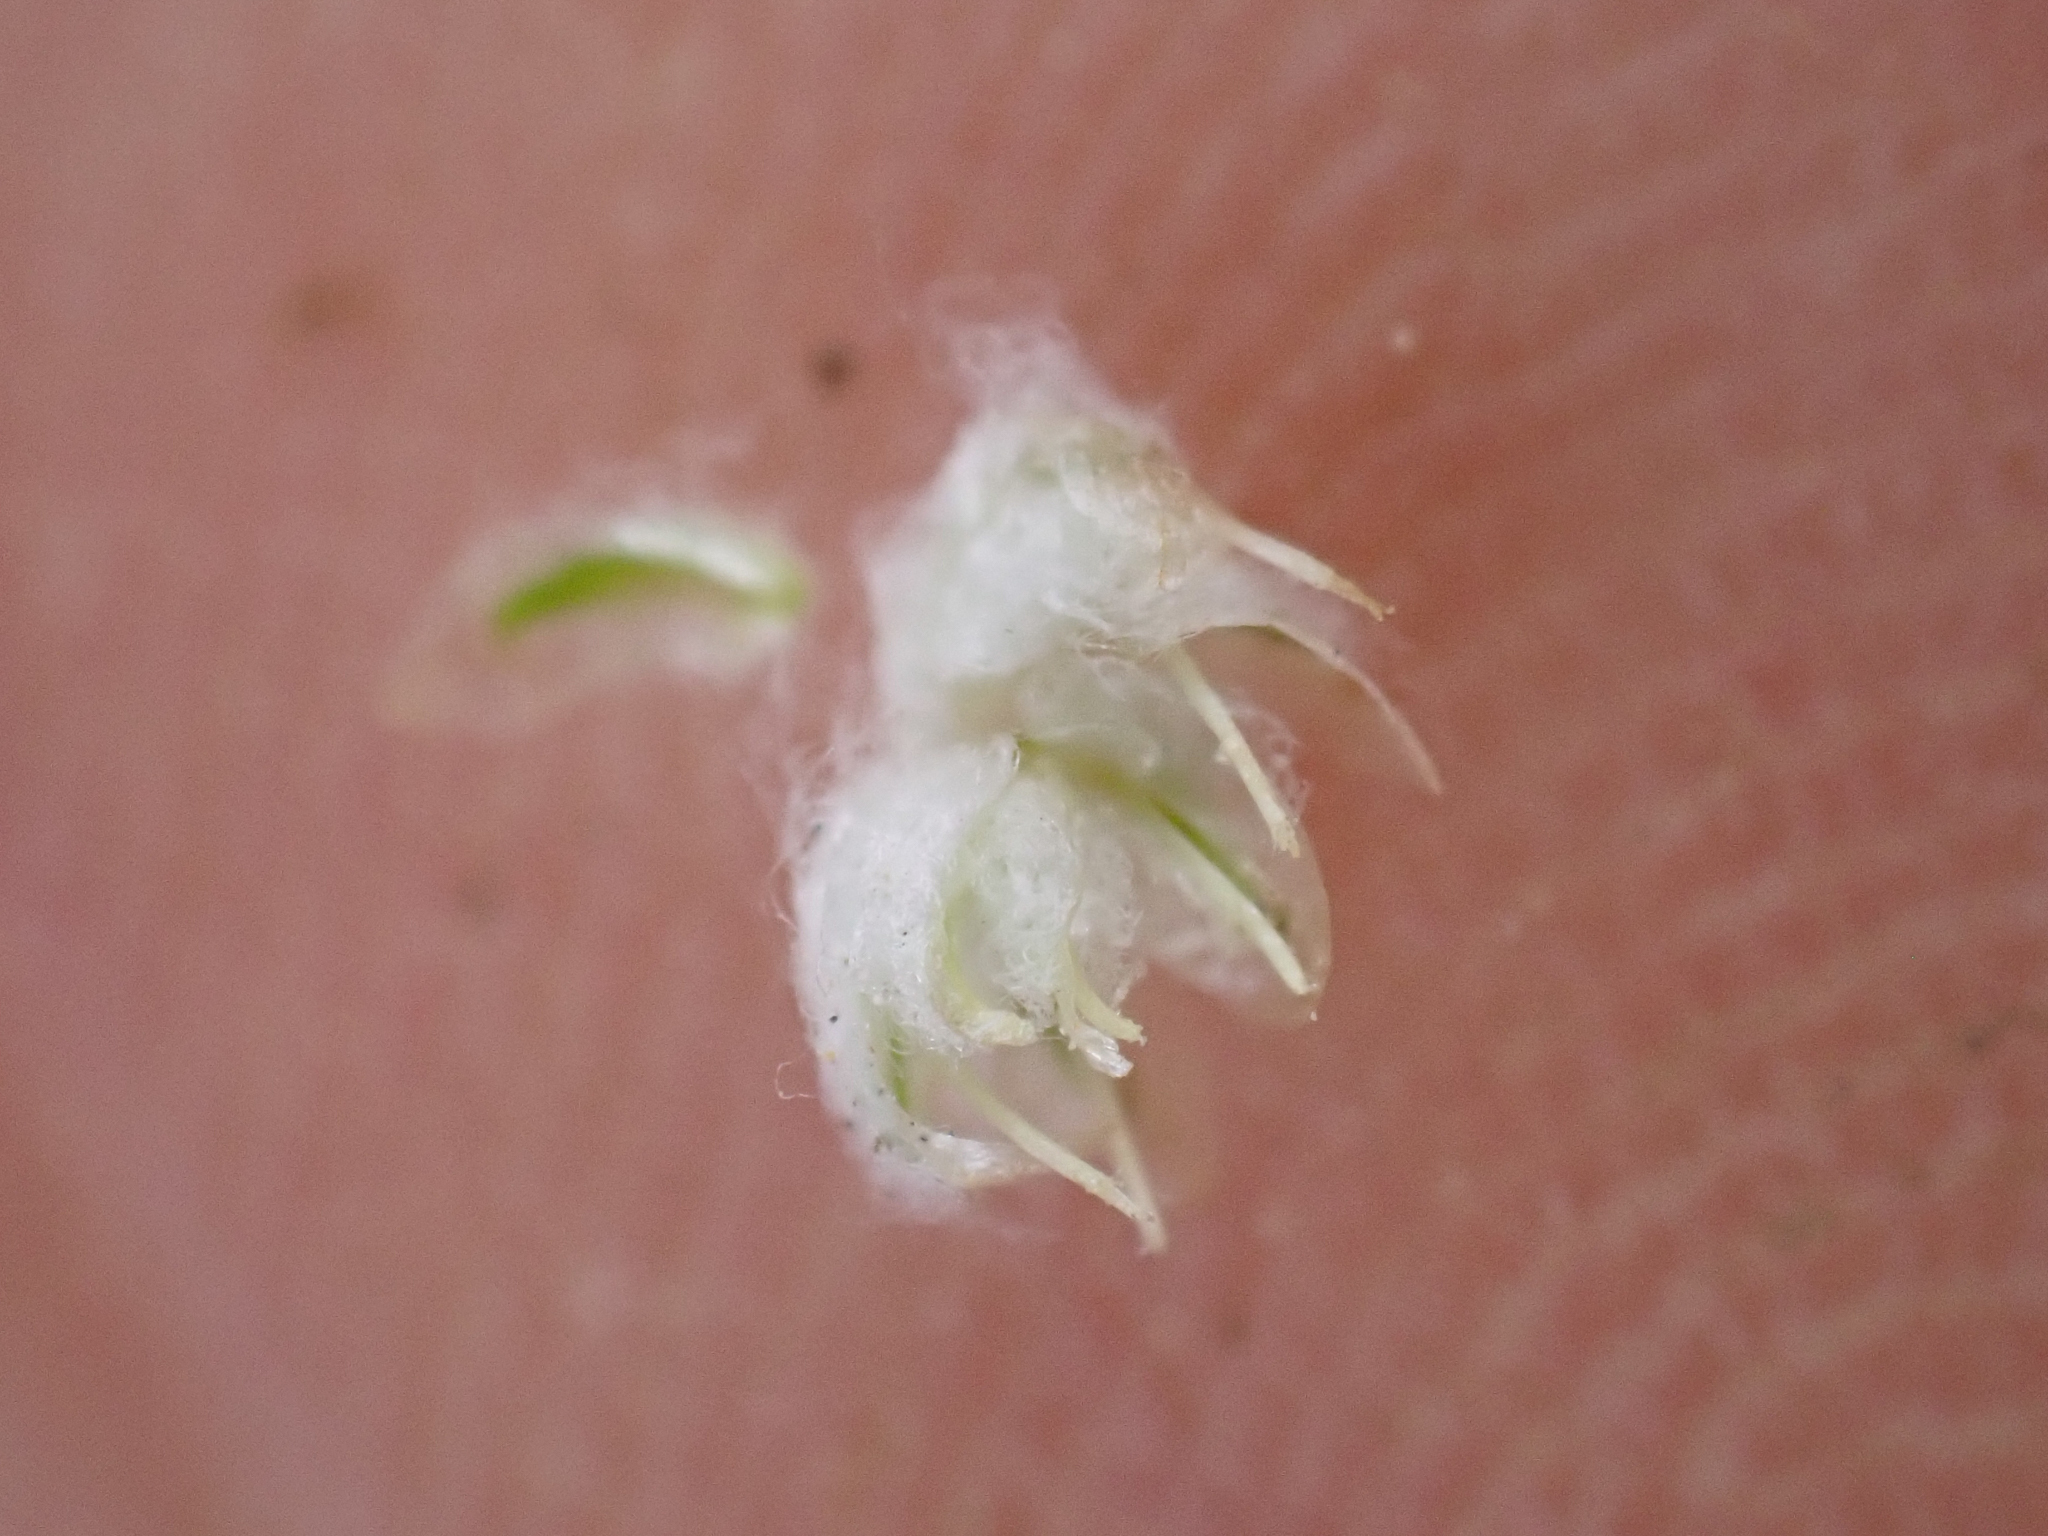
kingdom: Plantae
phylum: Tracheophyta
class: Magnoliopsida
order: Asterales
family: Asteraceae
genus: Logfia
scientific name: Logfia californica
